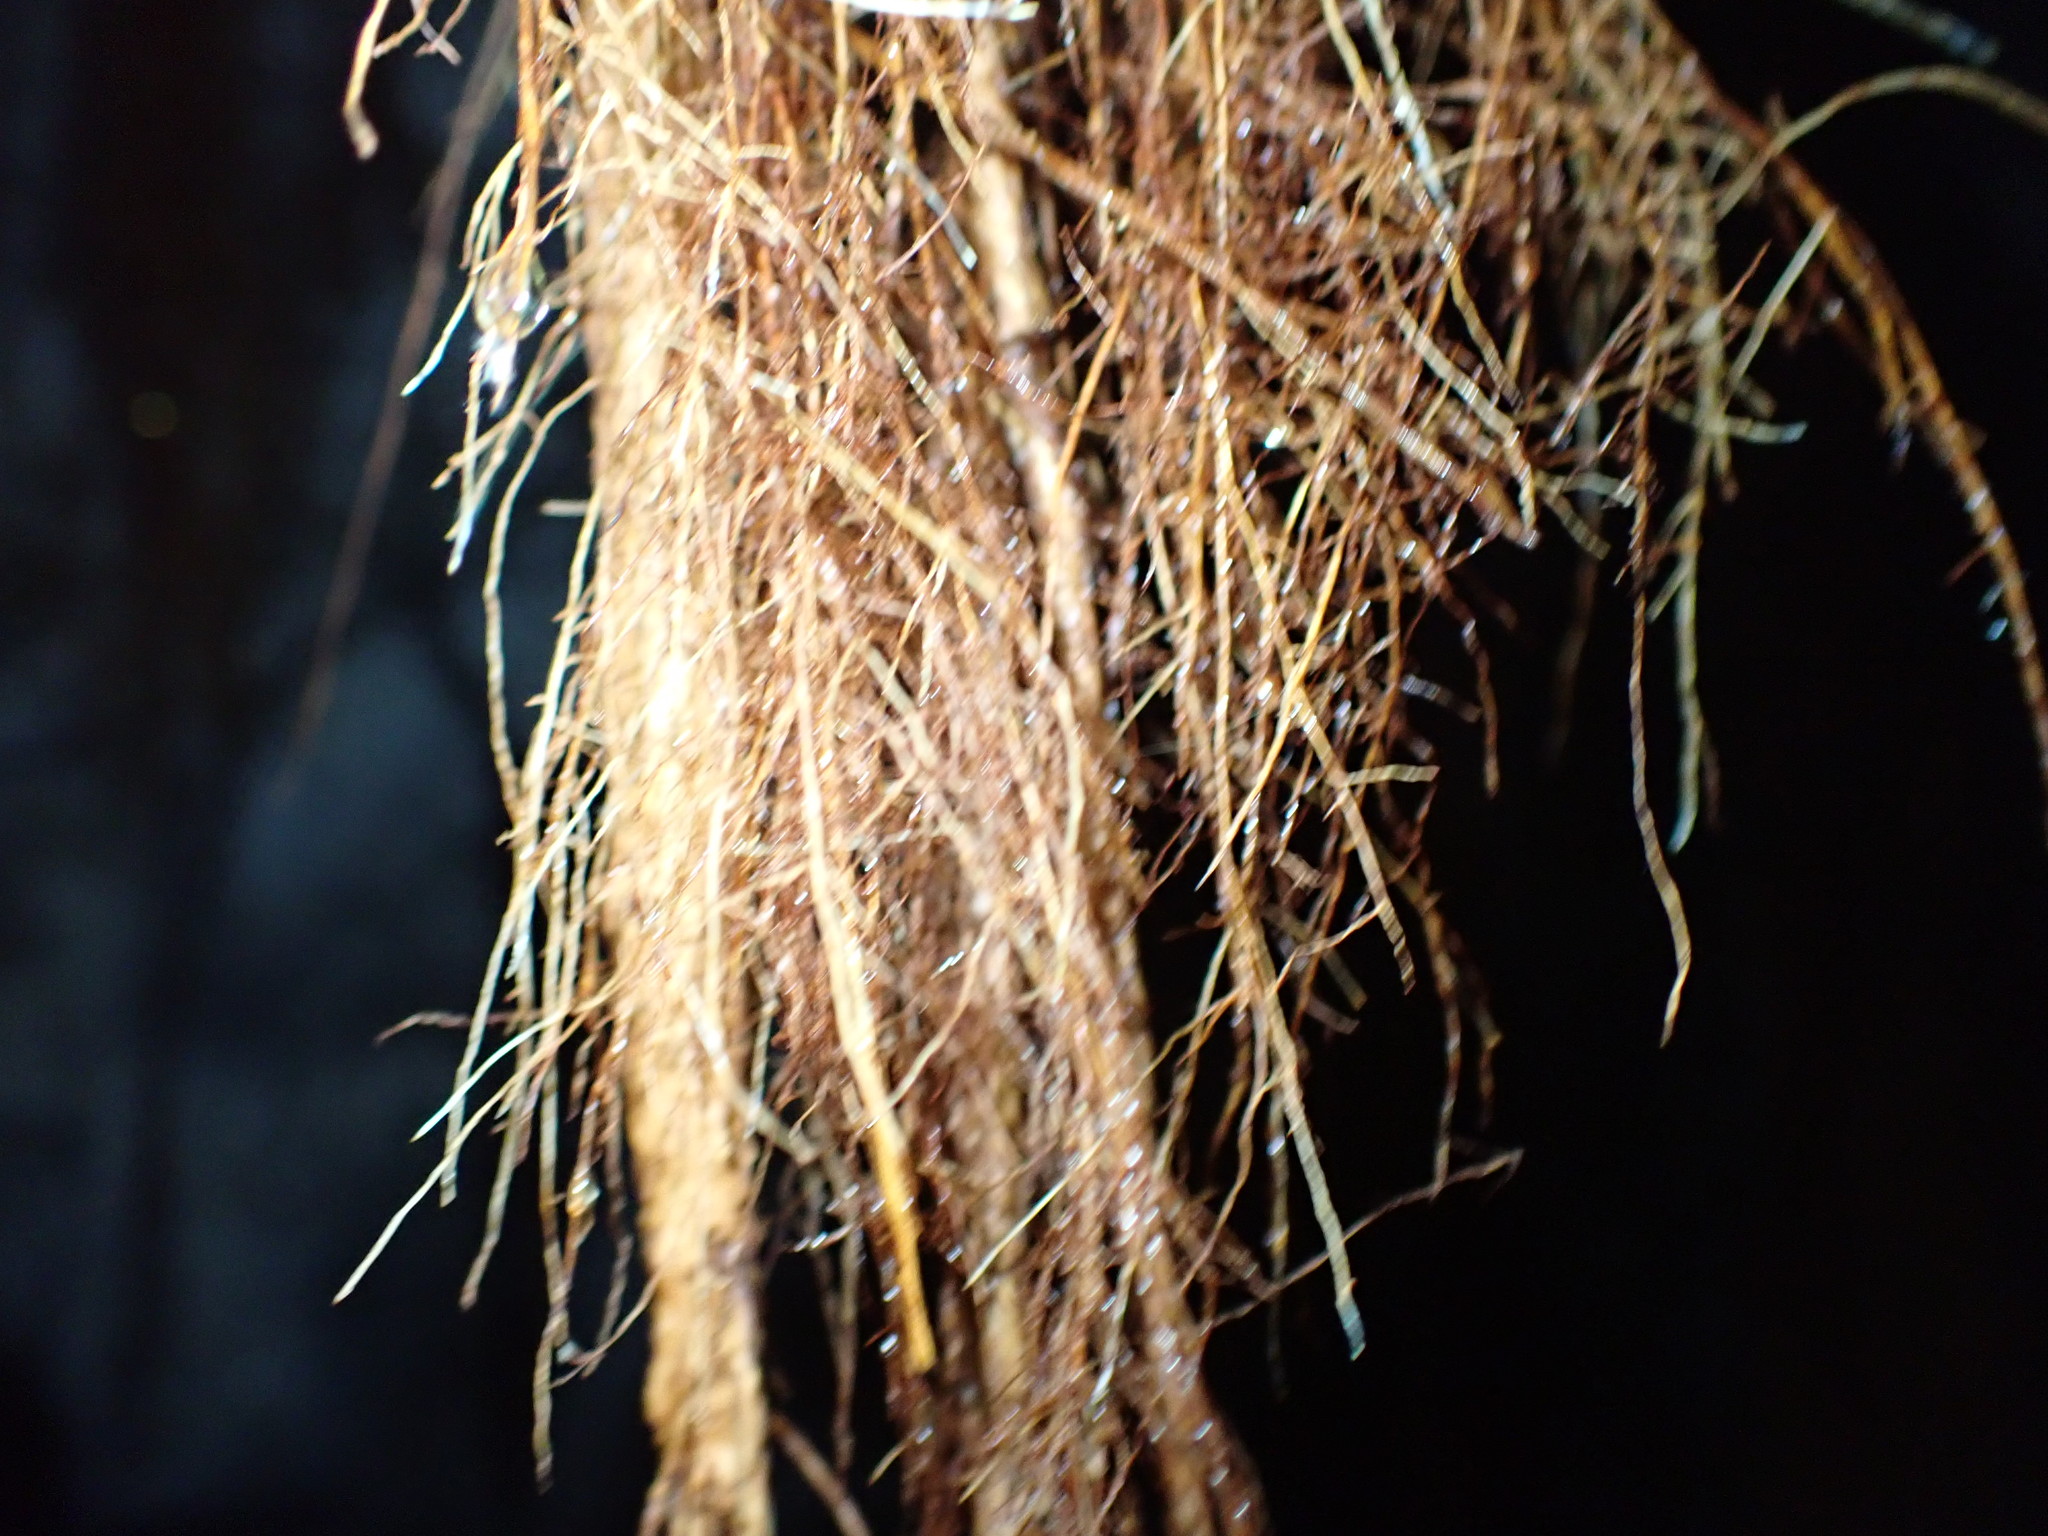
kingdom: Plantae
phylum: Tracheophyta
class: Magnoliopsida
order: Myrtales
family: Myrtaceae
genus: Metrosideros
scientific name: Metrosideros excelsa
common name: New zealand christmastree
